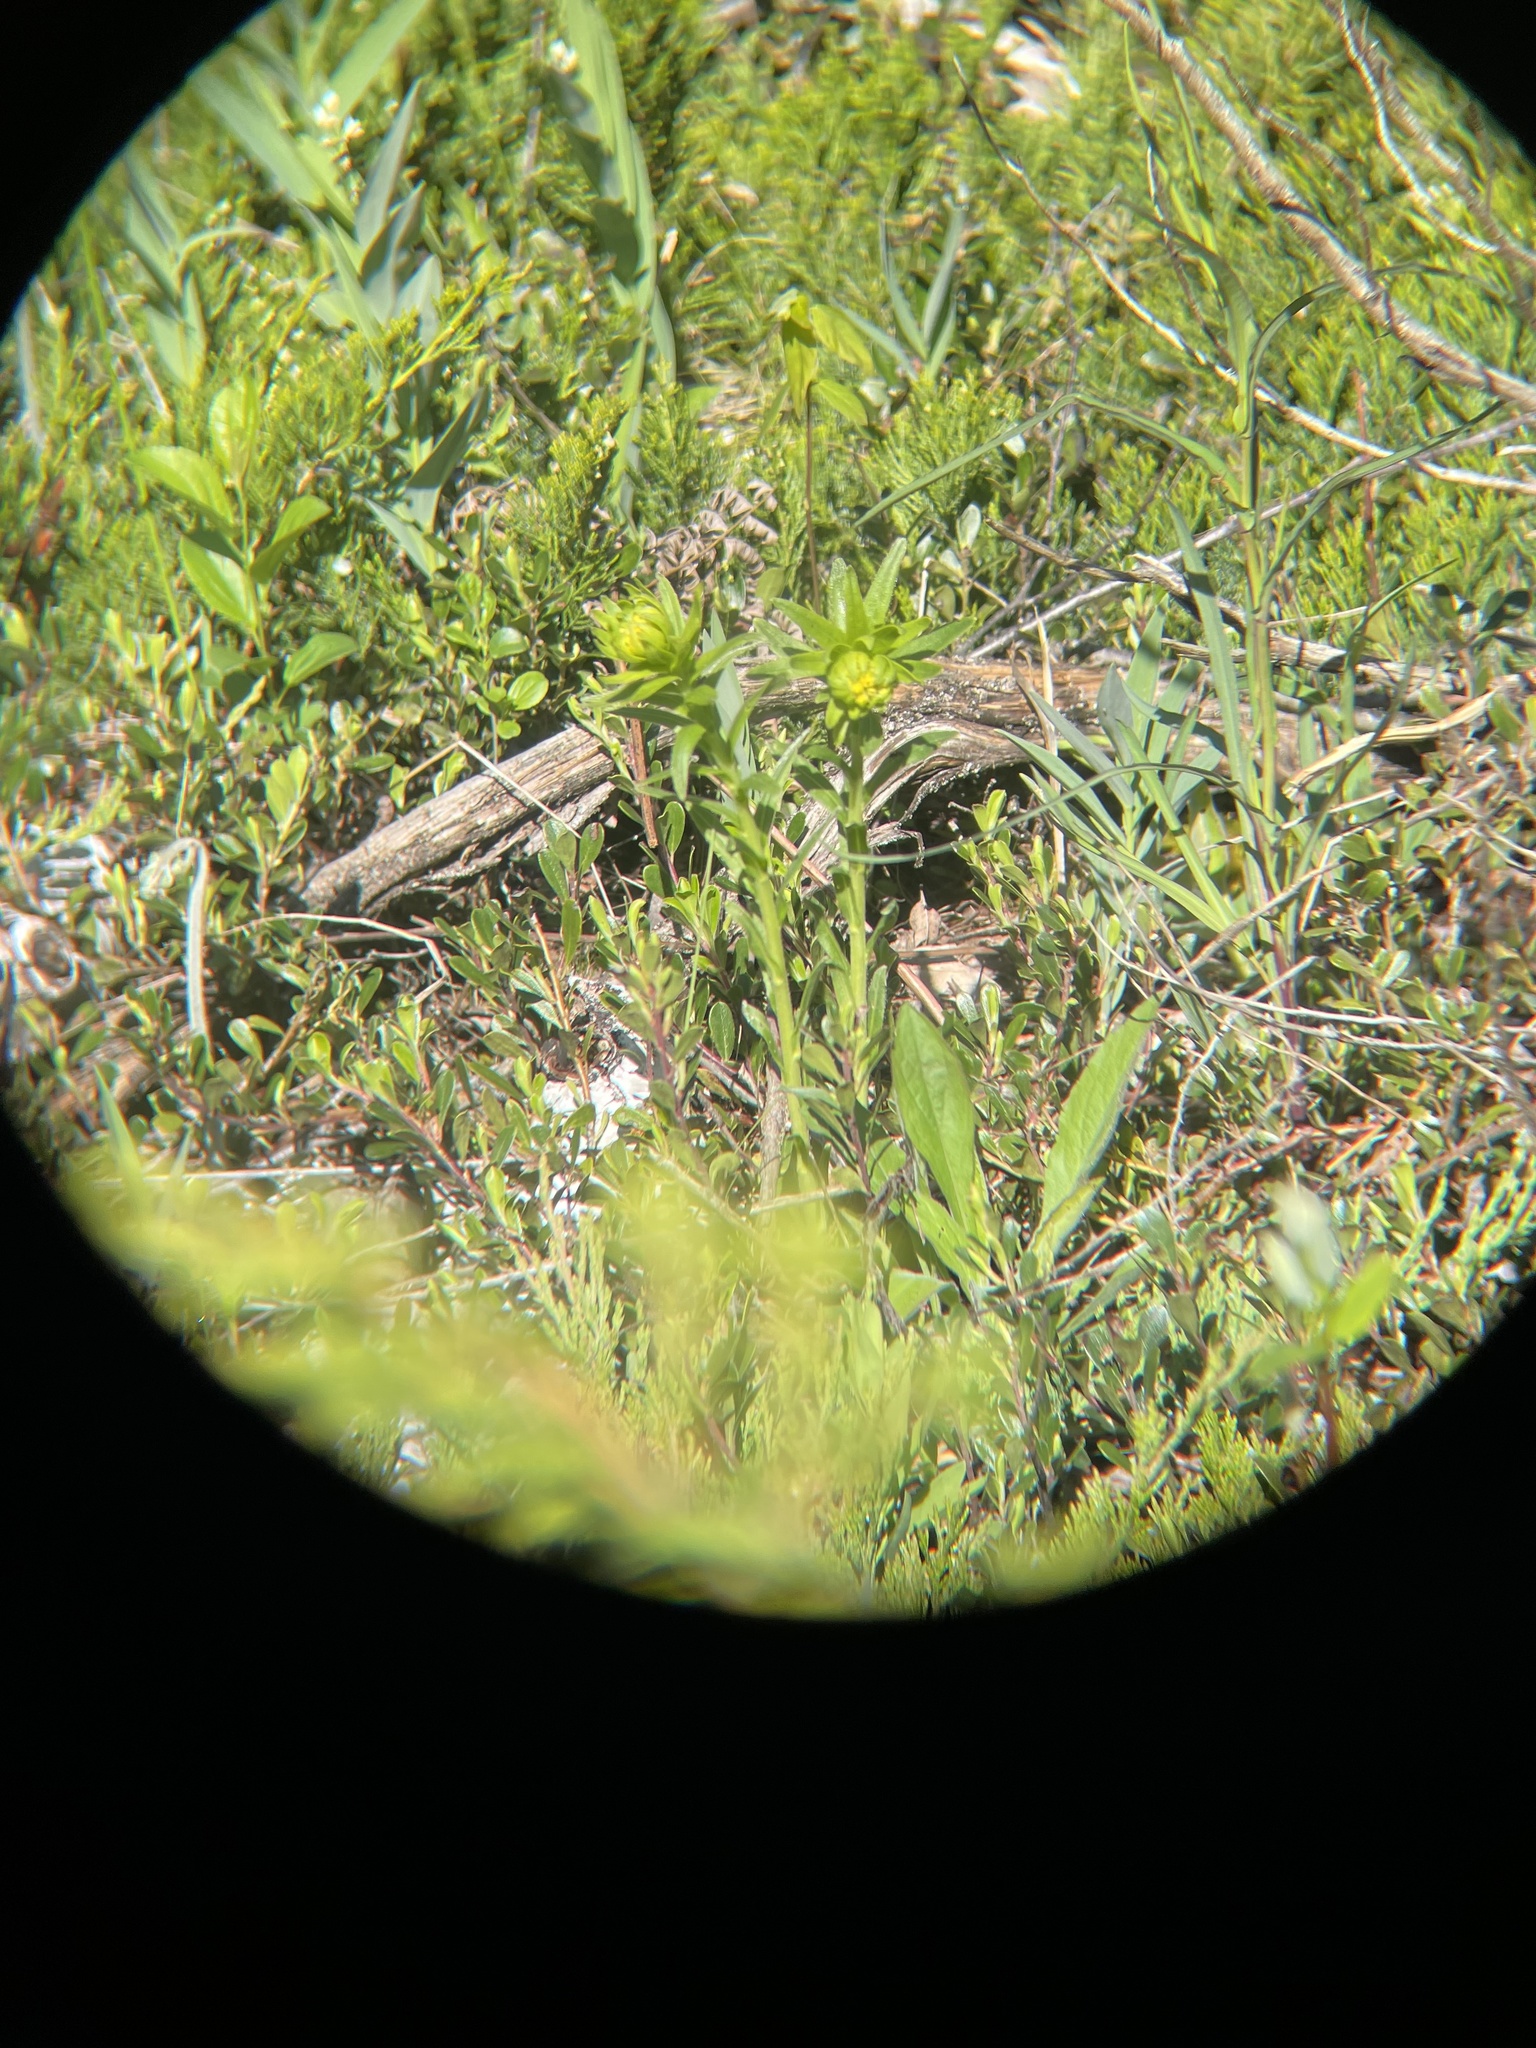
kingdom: Plantae
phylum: Tracheophyta
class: Magnoliopsida
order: Boraginales
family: Boraginaceae
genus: Lithospermum
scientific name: Lithospermum caroliniense
